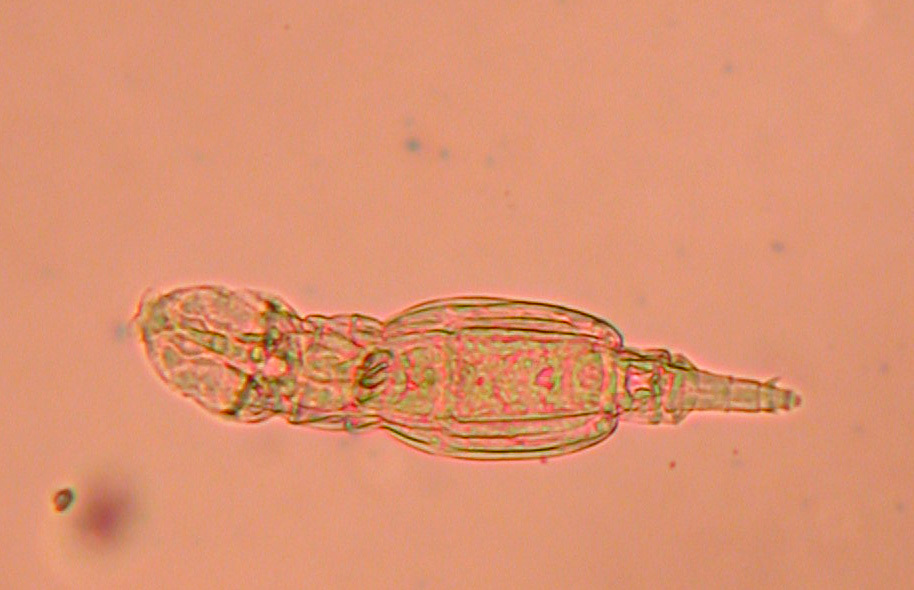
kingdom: Animalia
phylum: Rotifera
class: Eurotatoria
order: Bdelloidea
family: Adinetidae
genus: Adineta
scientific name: Adineta vaga
